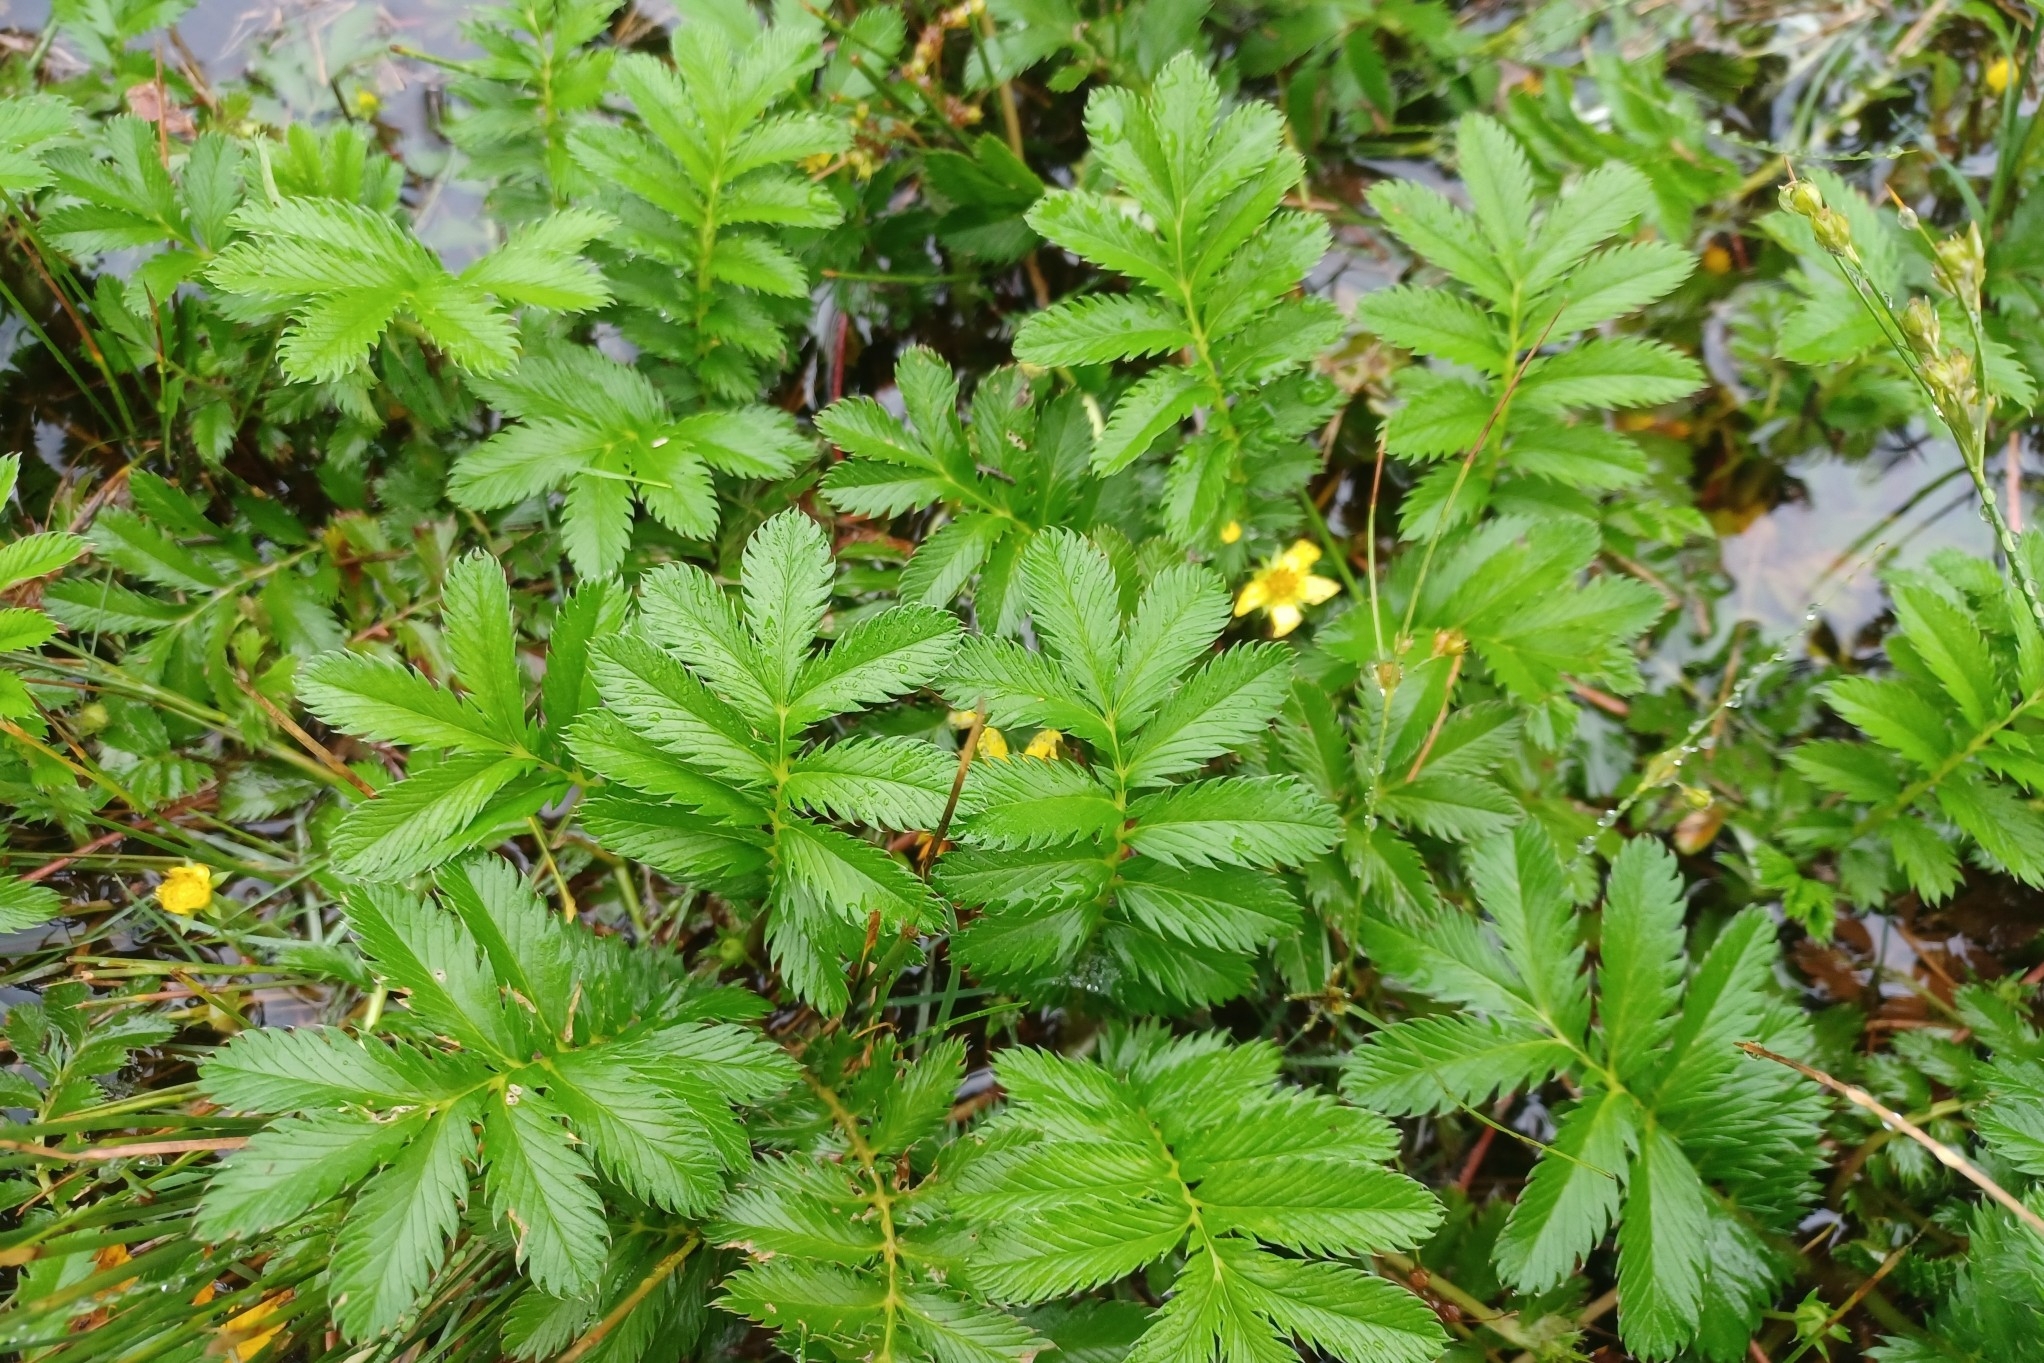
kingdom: Plantae
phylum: Tracheophyta
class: Magnoliopsida
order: Rosales
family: Rosaceae
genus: Argentina
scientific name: Argentina anserina
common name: Common silverweed
